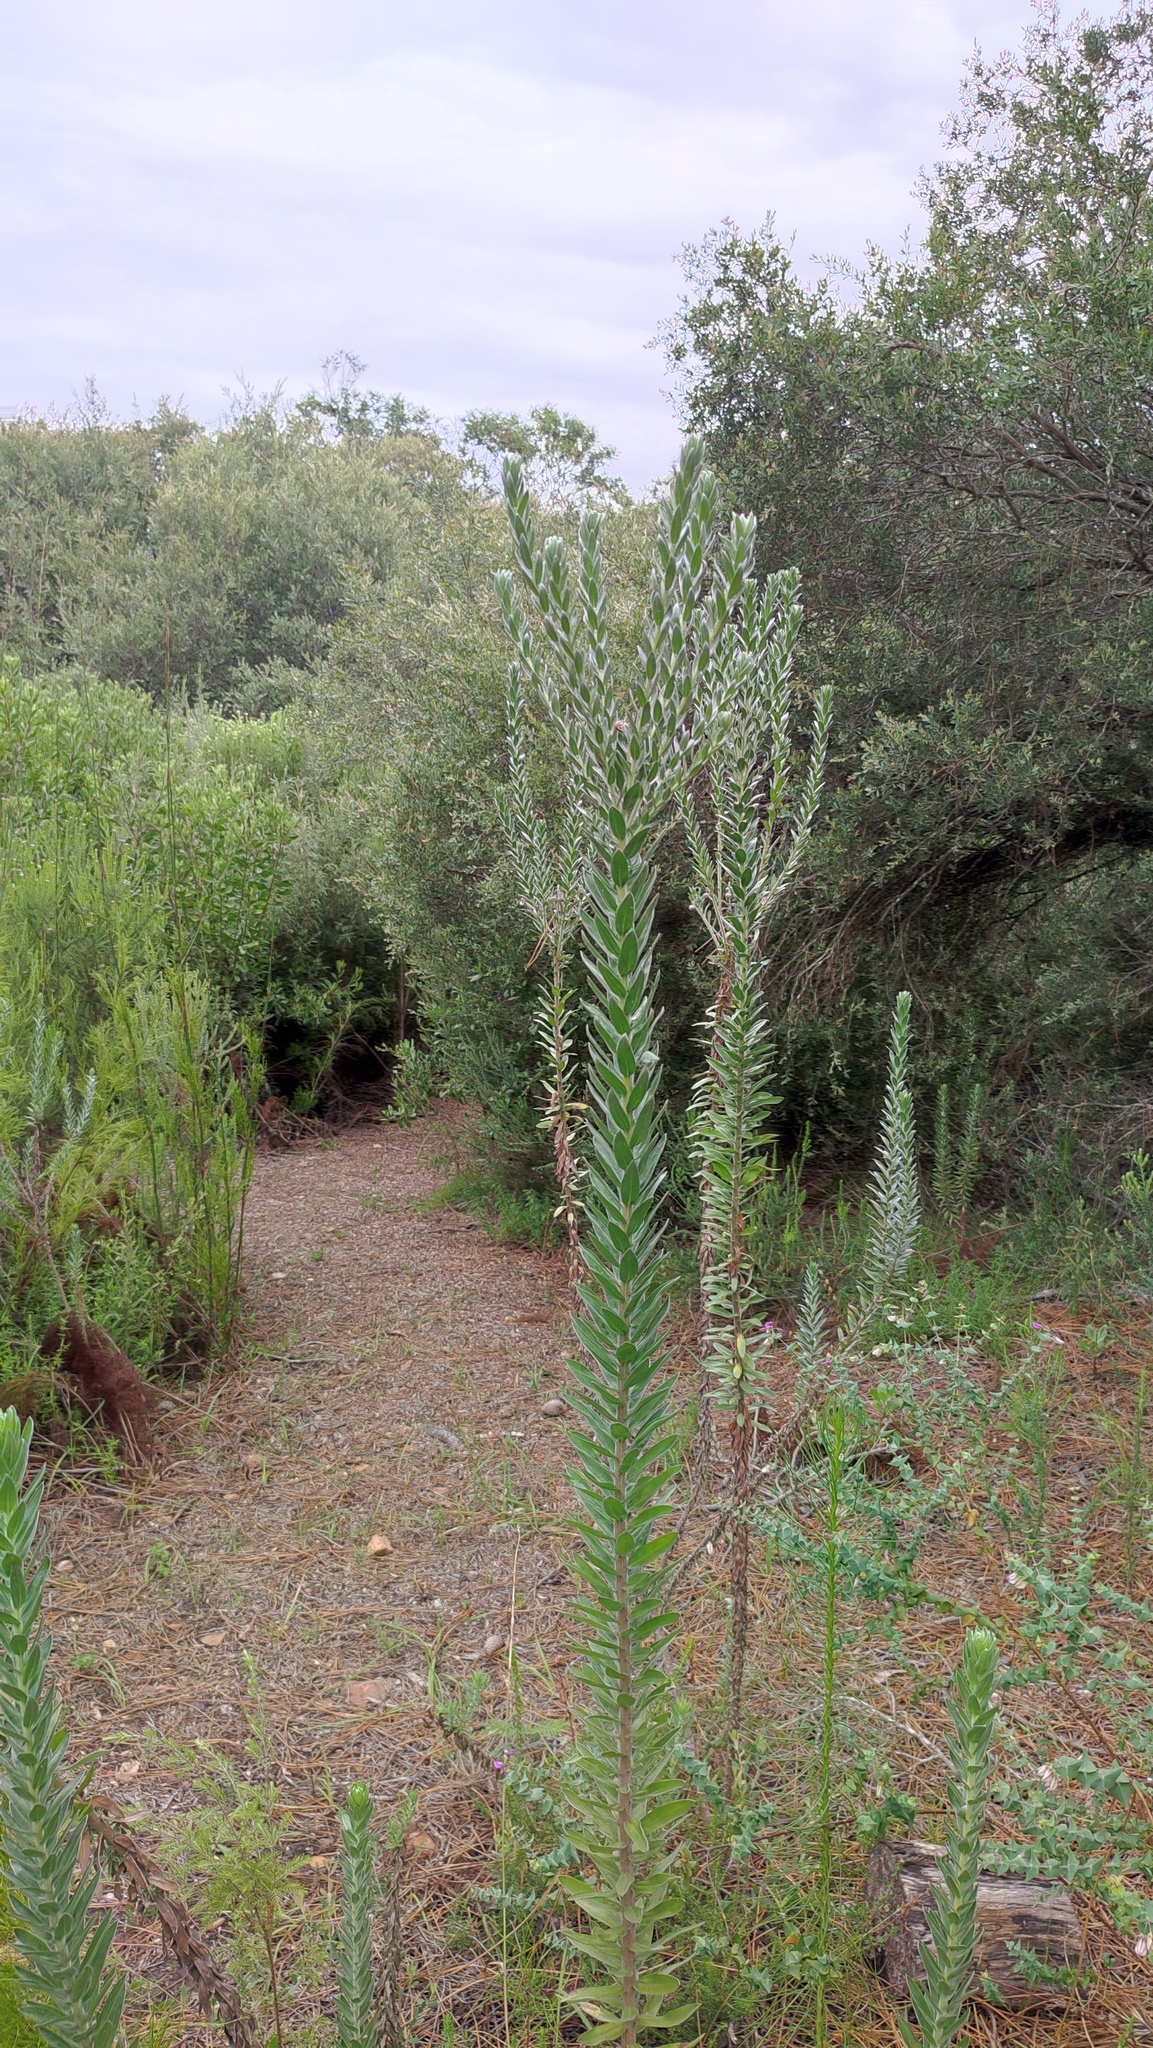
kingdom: Plantae
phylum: Tracheophyta
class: Magnoliopsida
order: Asterales
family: Asteraceae
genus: Schistostephium
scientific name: Schistostephium umbellatum
